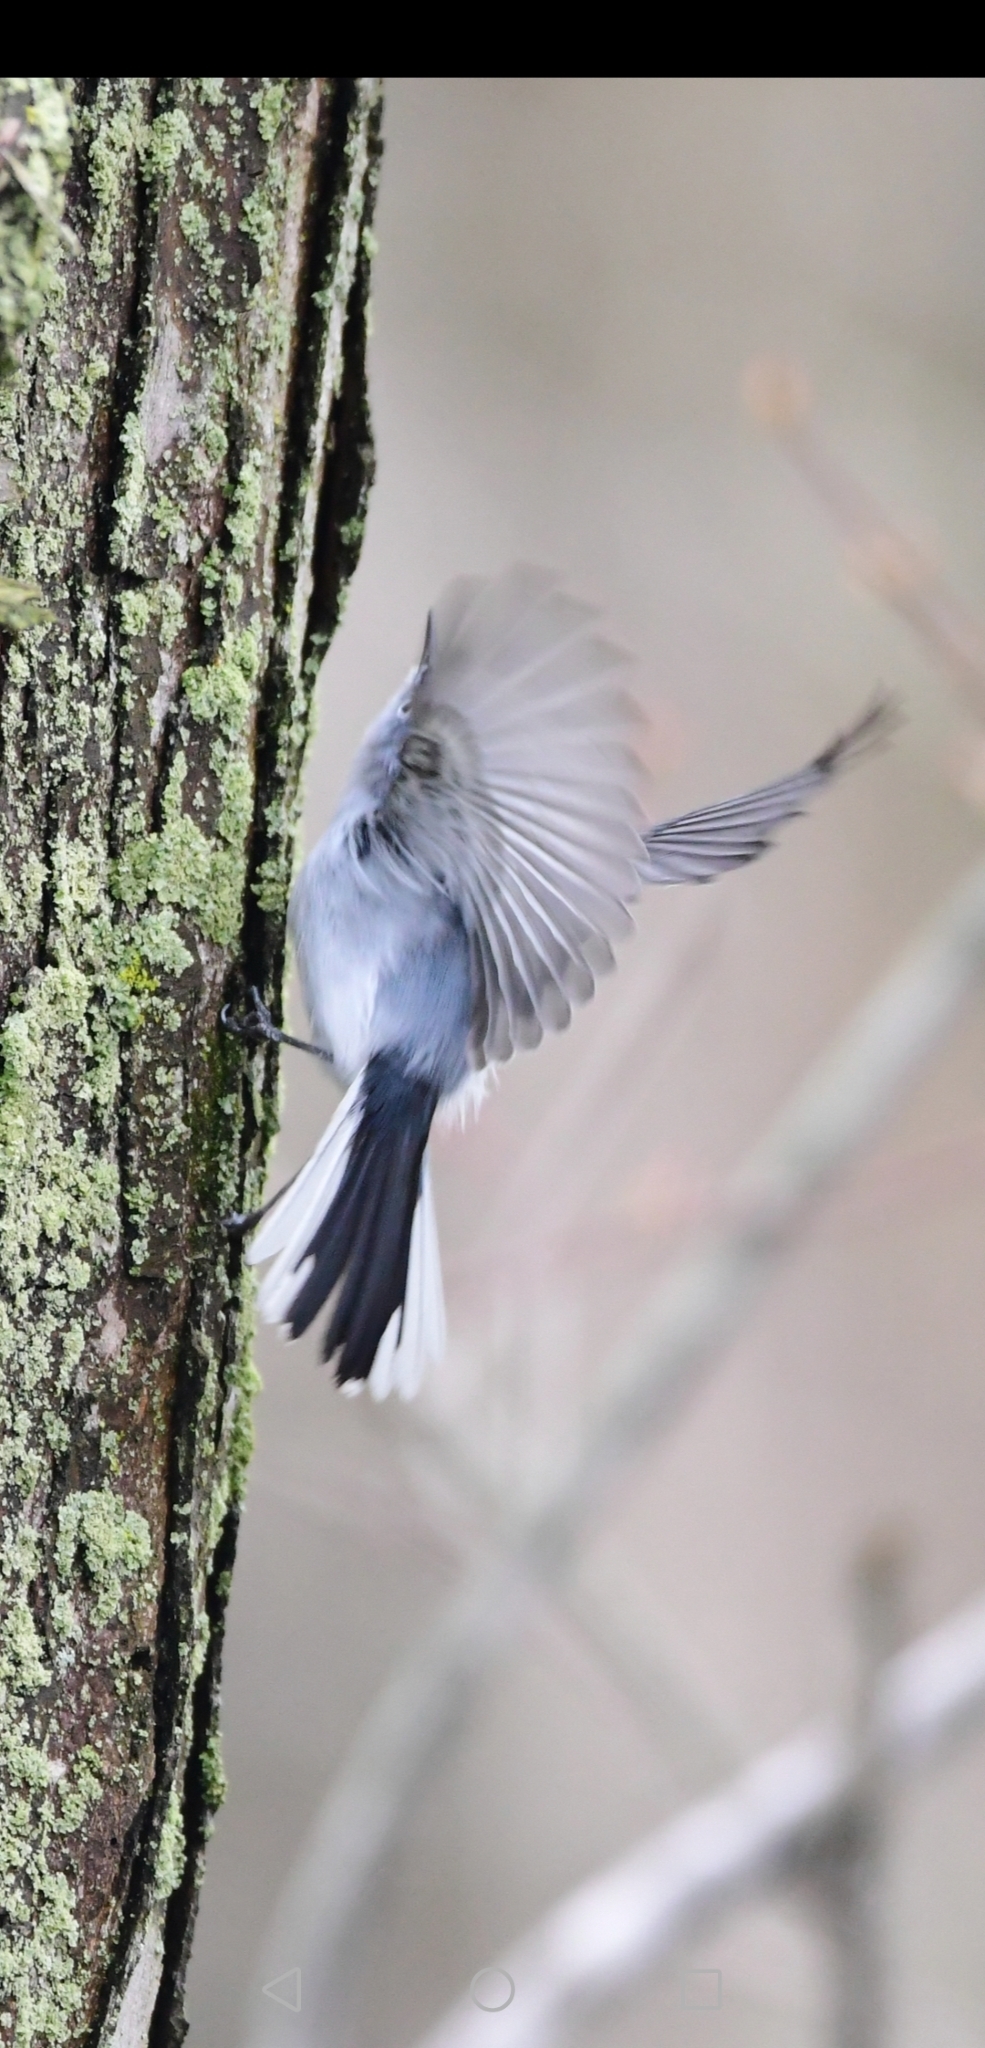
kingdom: Animalia
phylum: Chordata
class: Aves
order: Passeriformes
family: Polioptilidae
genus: Polioptila
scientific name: Polioptila caerulea
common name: Blue-gray gnatcatcher
